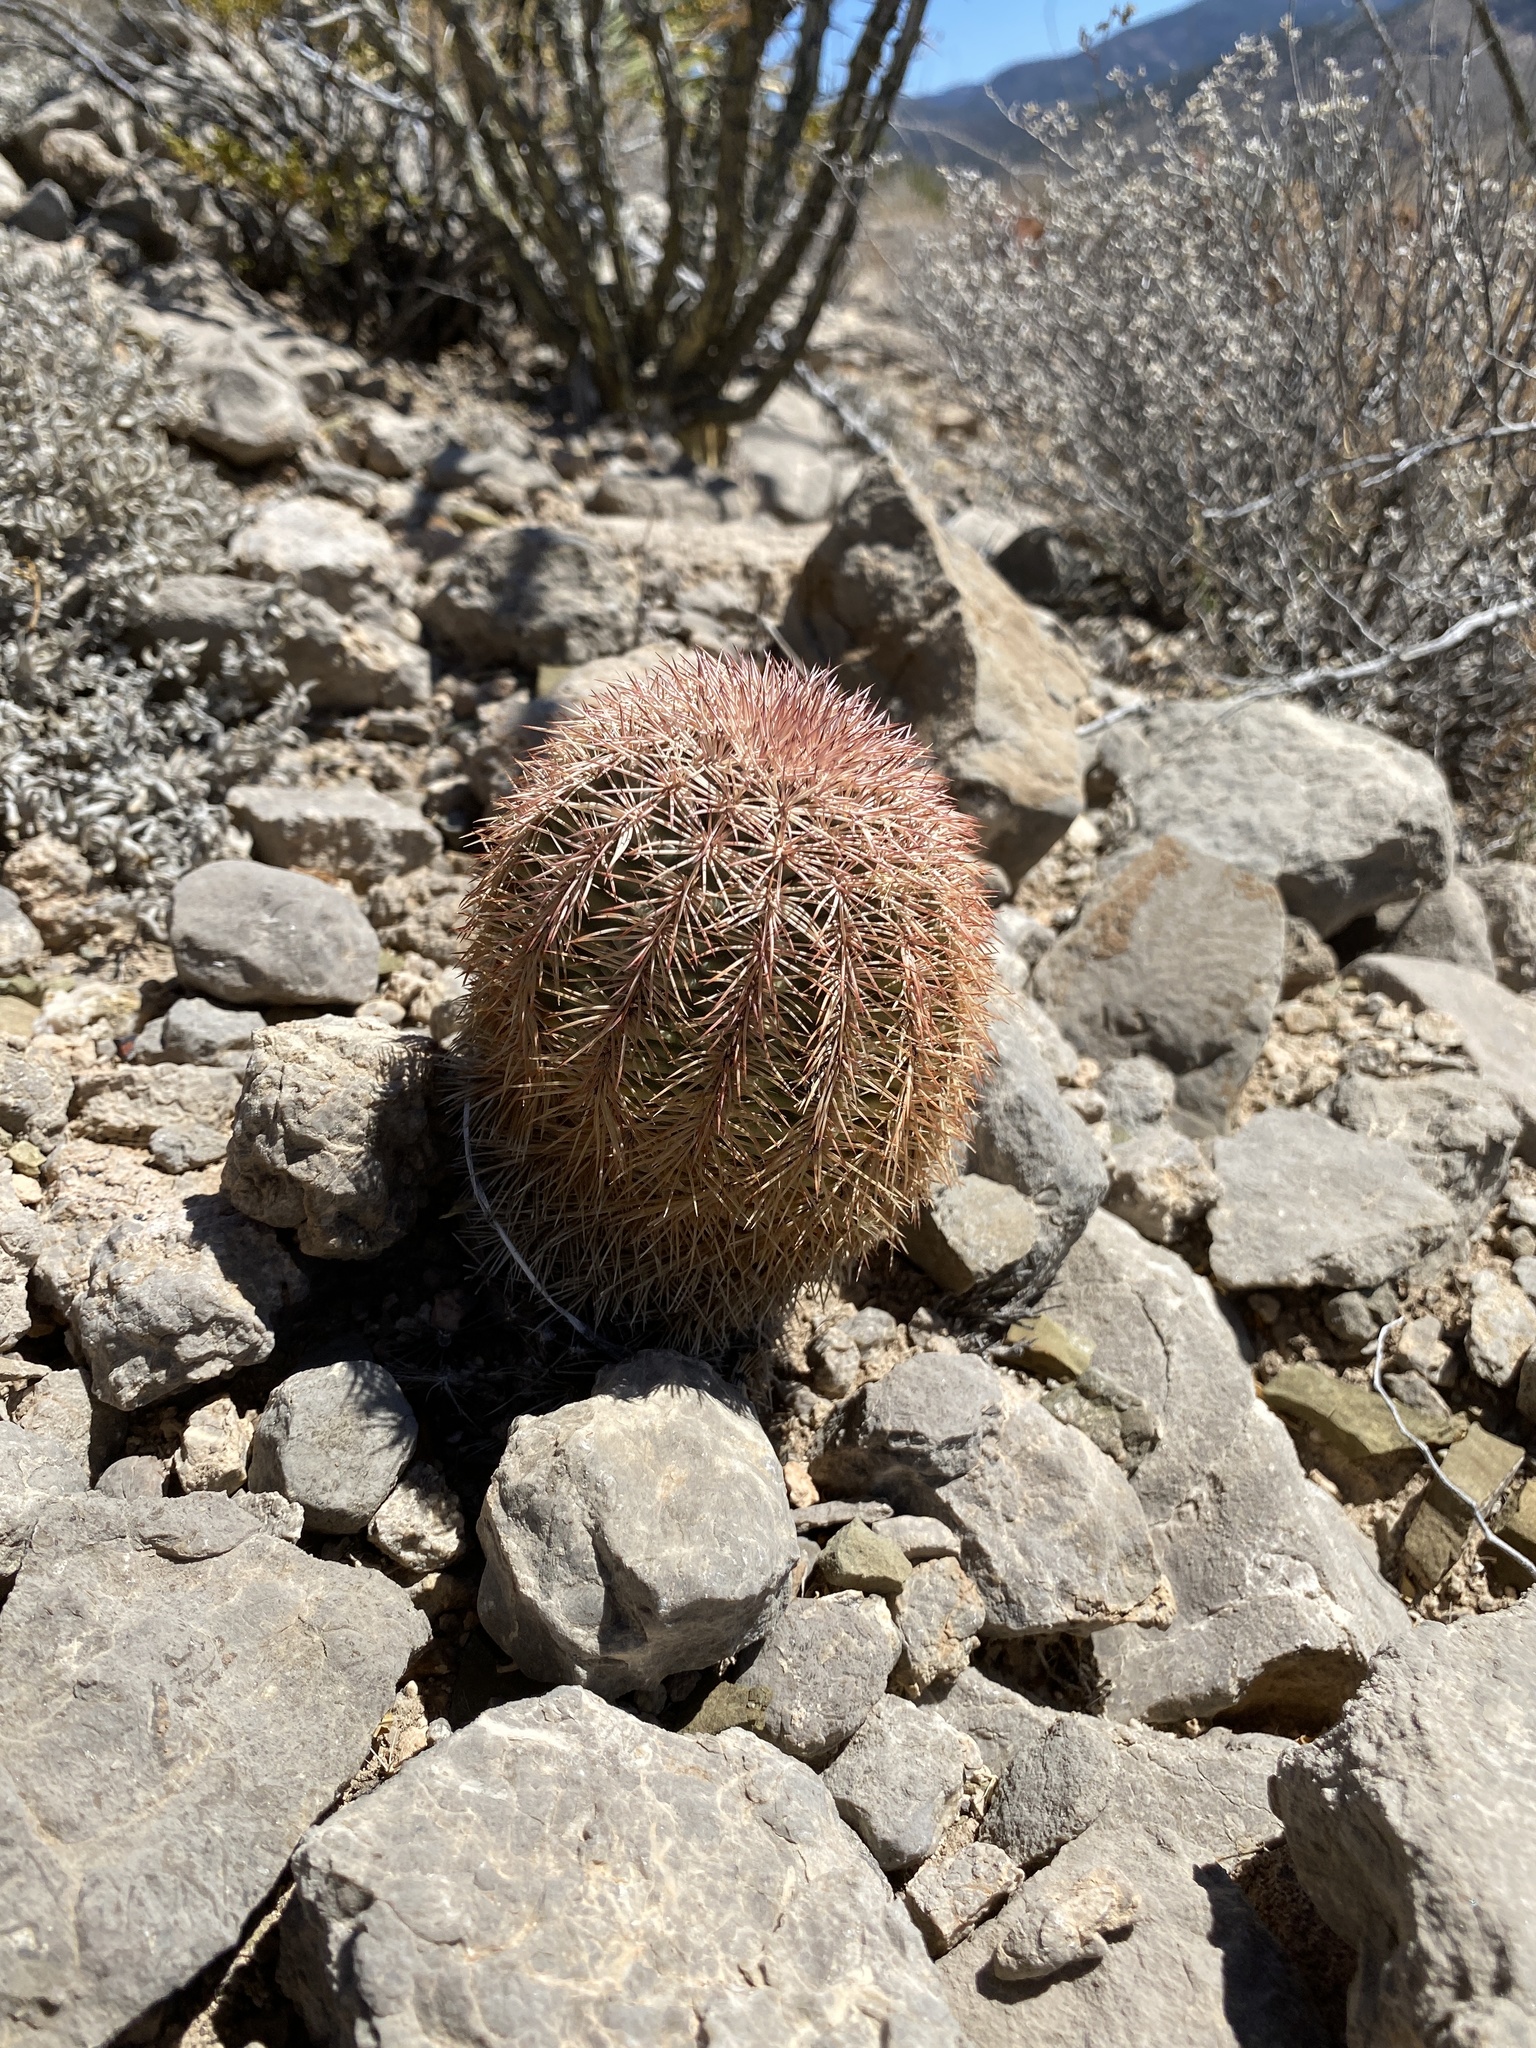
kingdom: Plantae
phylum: Tracheophyta
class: Magnoliopsida
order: Caryophyllales
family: Cactaceae
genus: Echinocereus
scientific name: Echinocereus dasyacanthus
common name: Spiny hedgehog cactus
